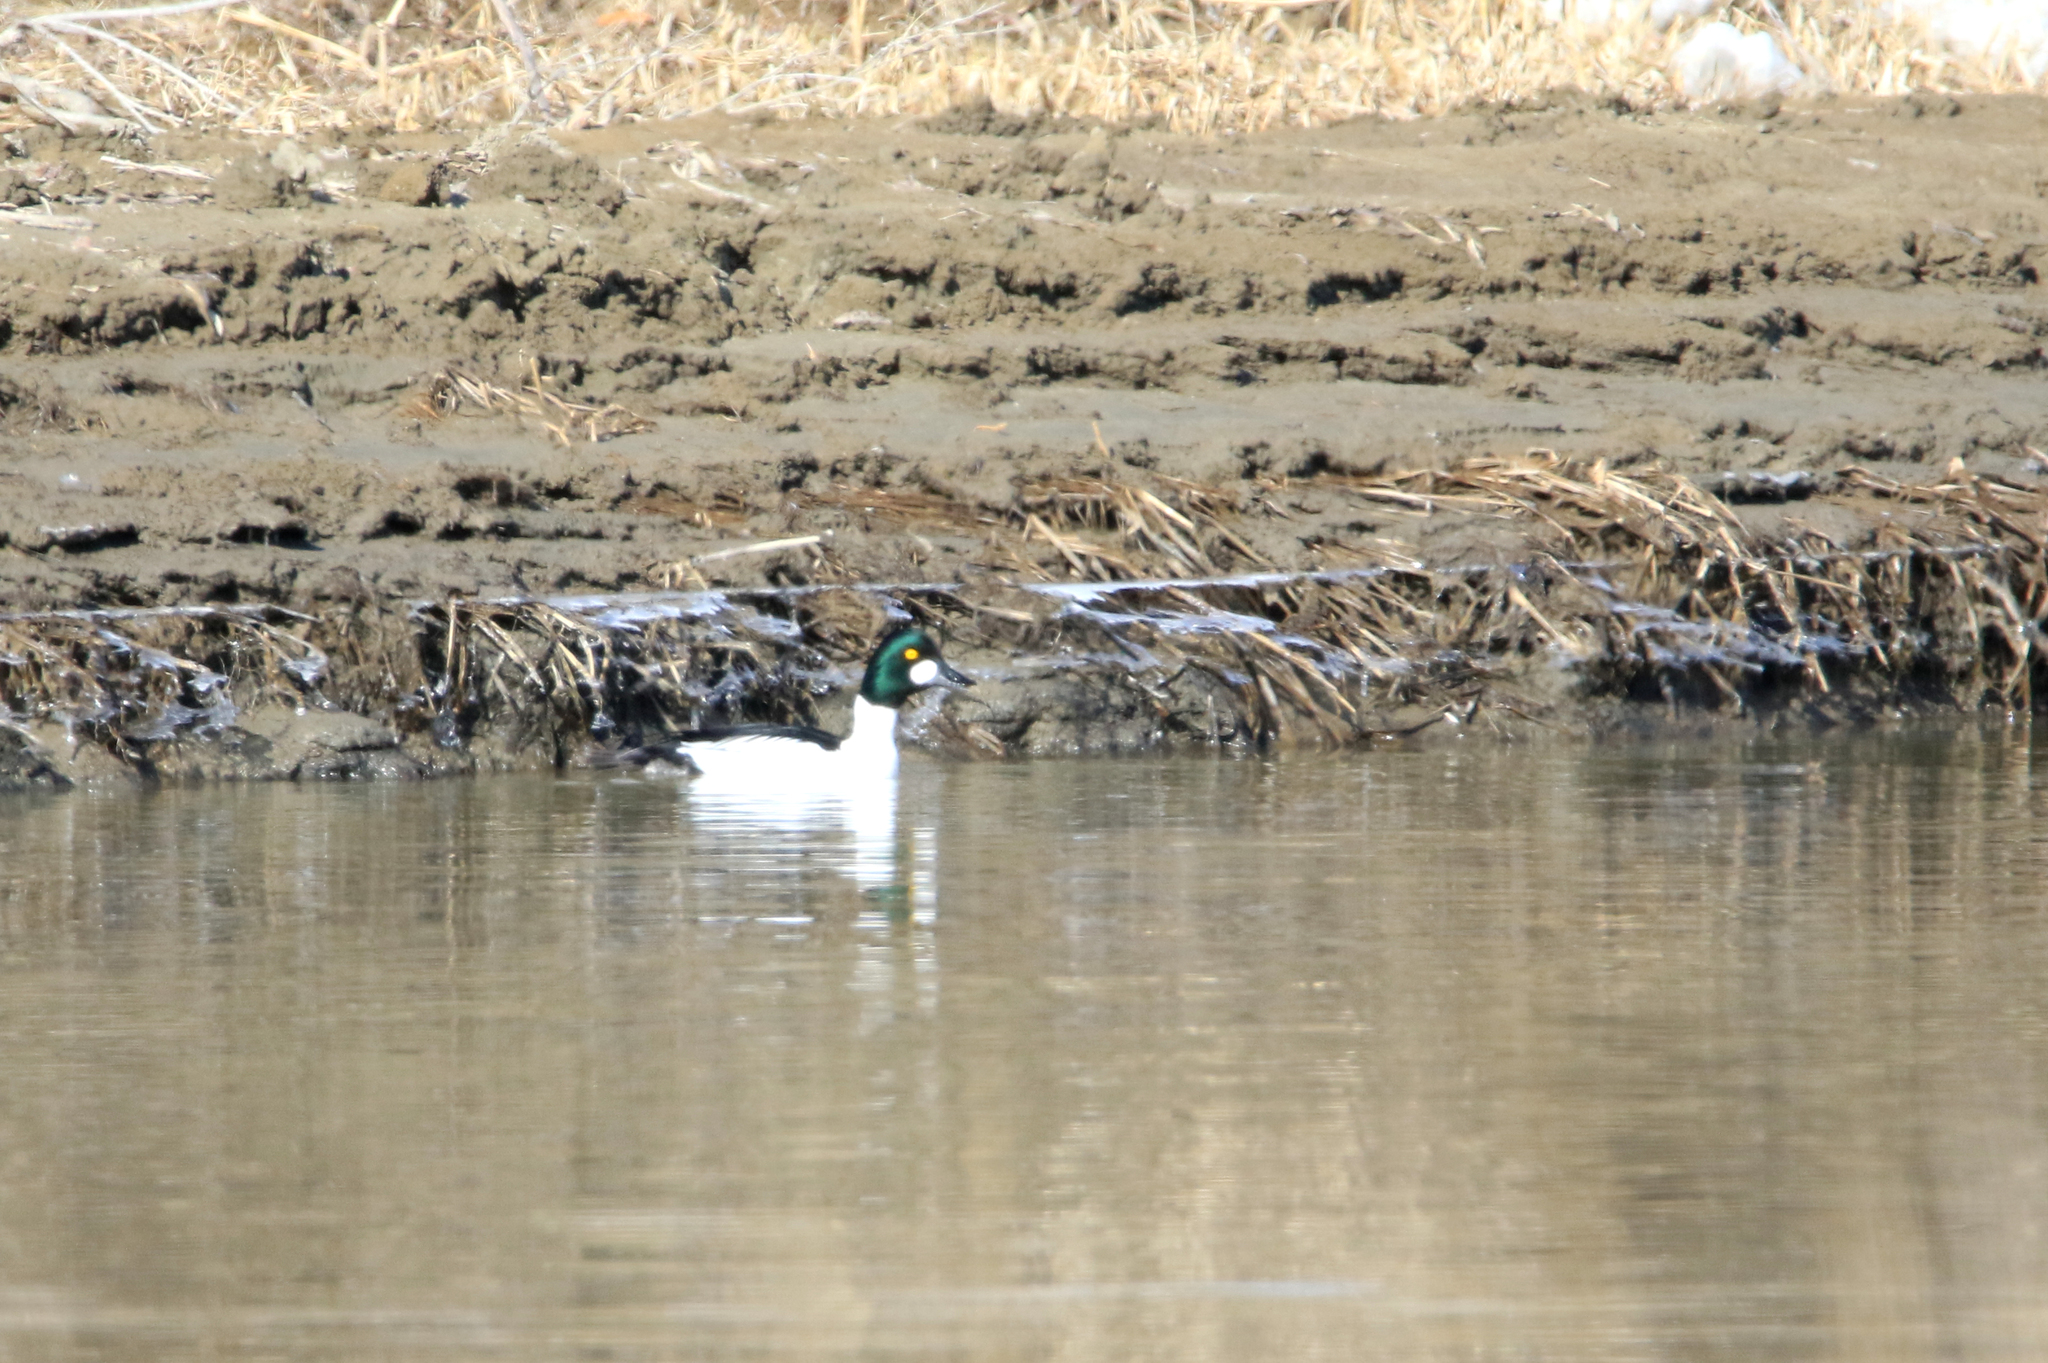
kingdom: Animalia
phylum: Chordata
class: Aves
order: Anseriformes
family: Anatidae
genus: Bucephala
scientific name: Bucephala clangula
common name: Common goldeneye
